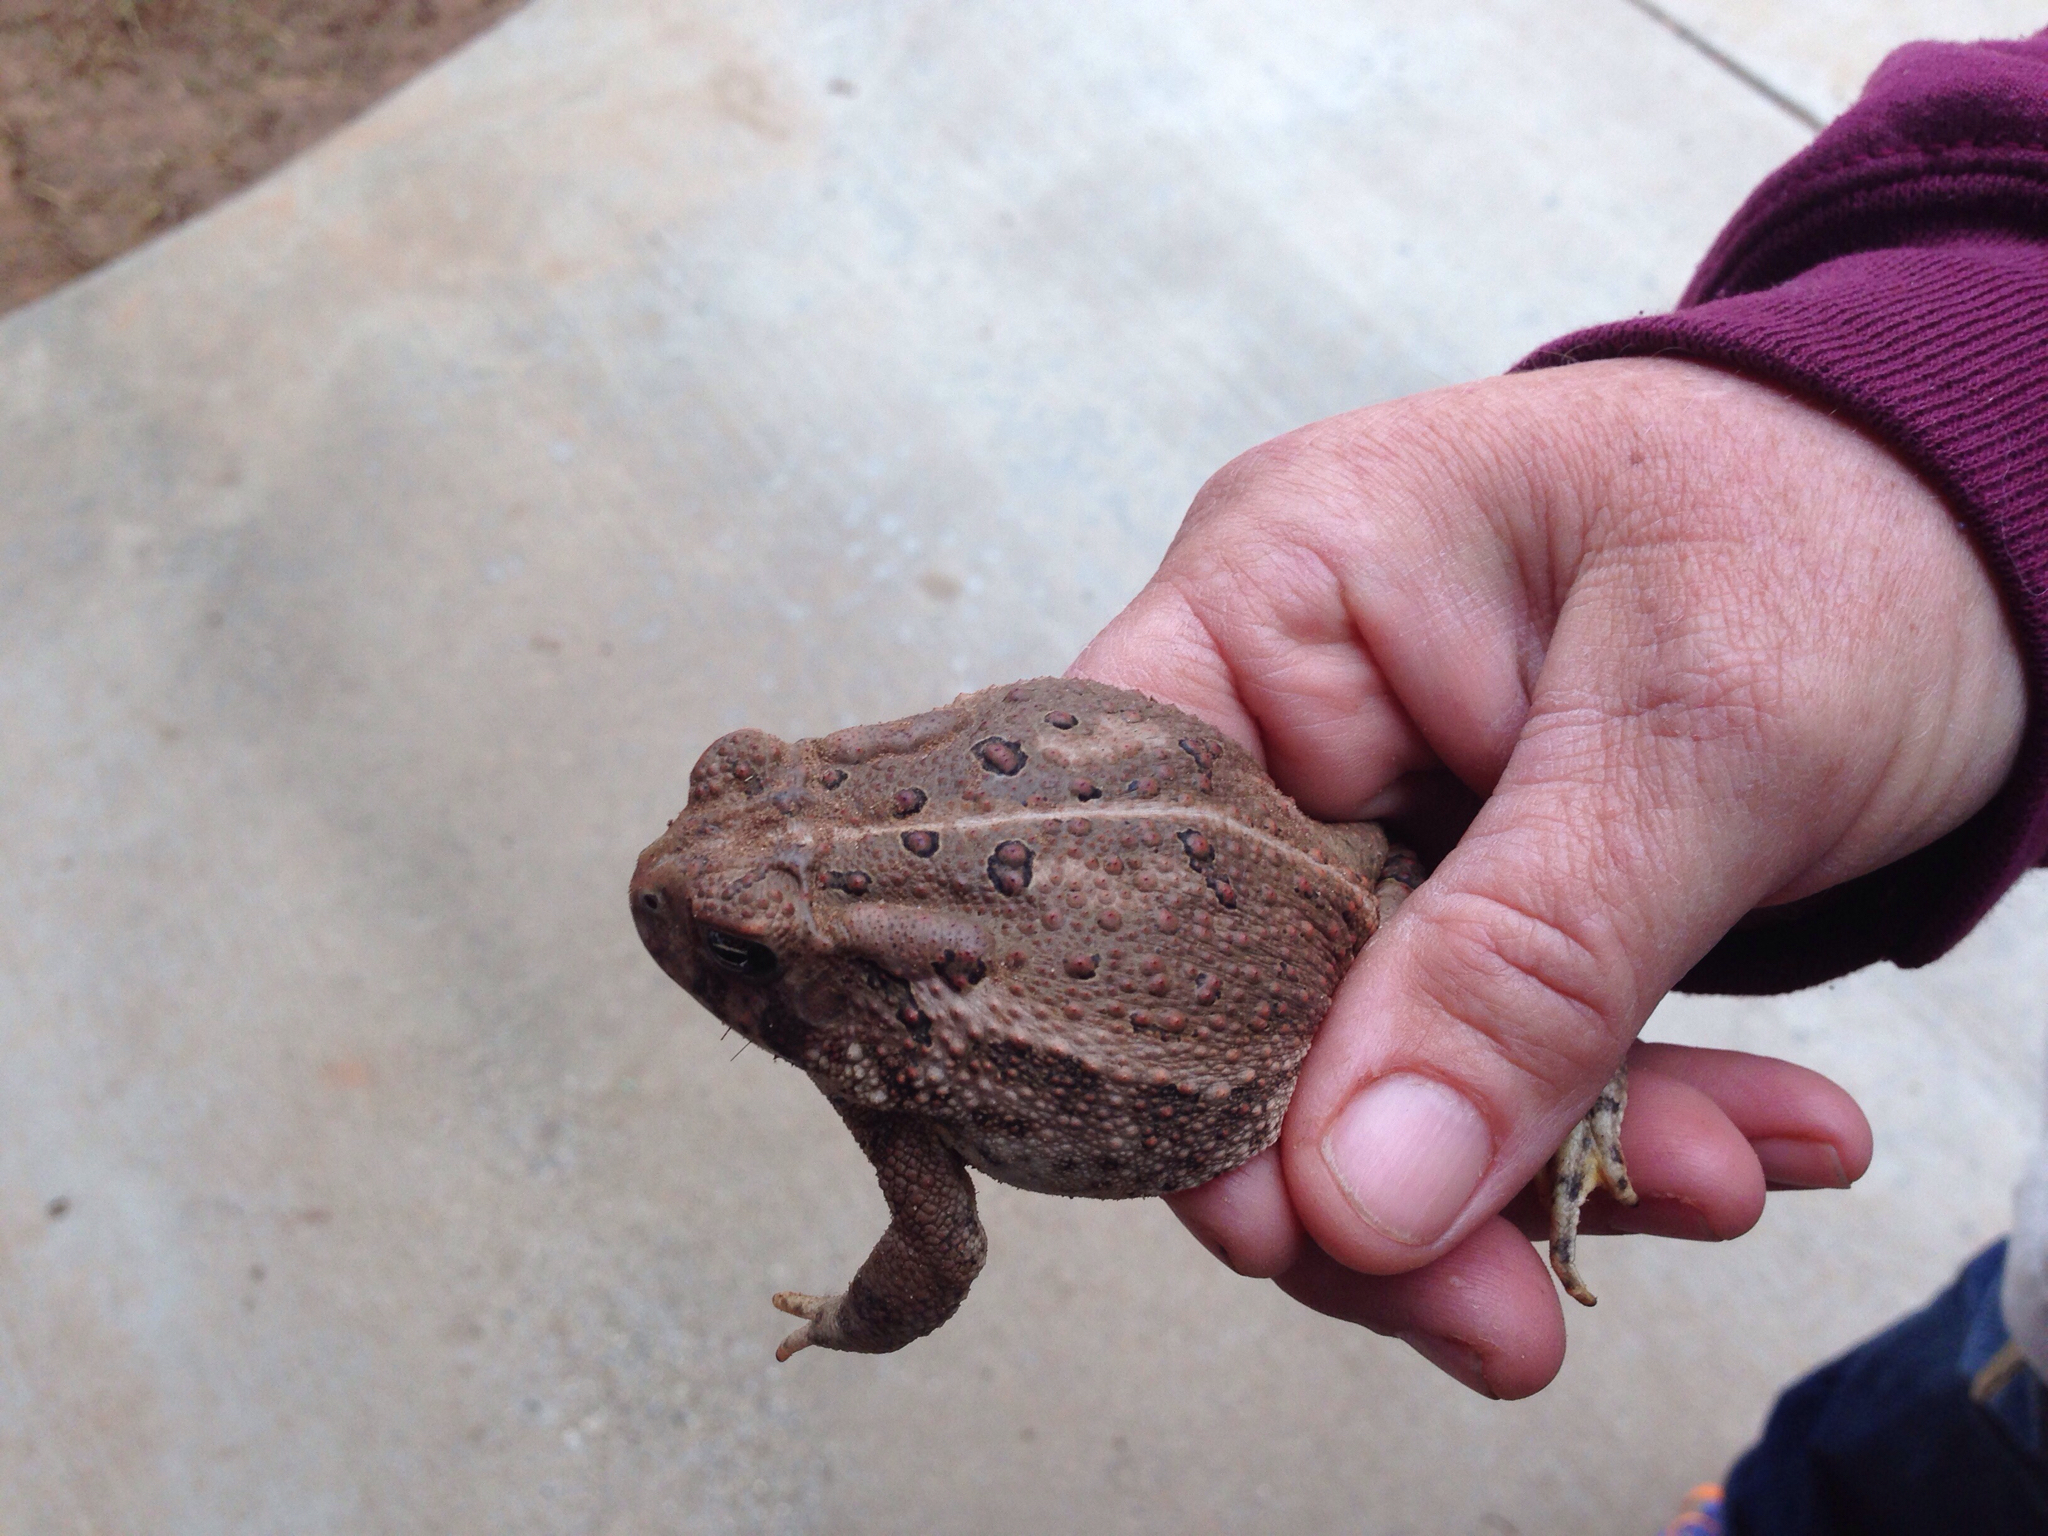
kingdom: Animalia
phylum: Chordata
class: Amphibia
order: Anura
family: Bufonidae
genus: Anaxyrus
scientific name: Anaxyrus woodhousii
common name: Woodhouse's toad
